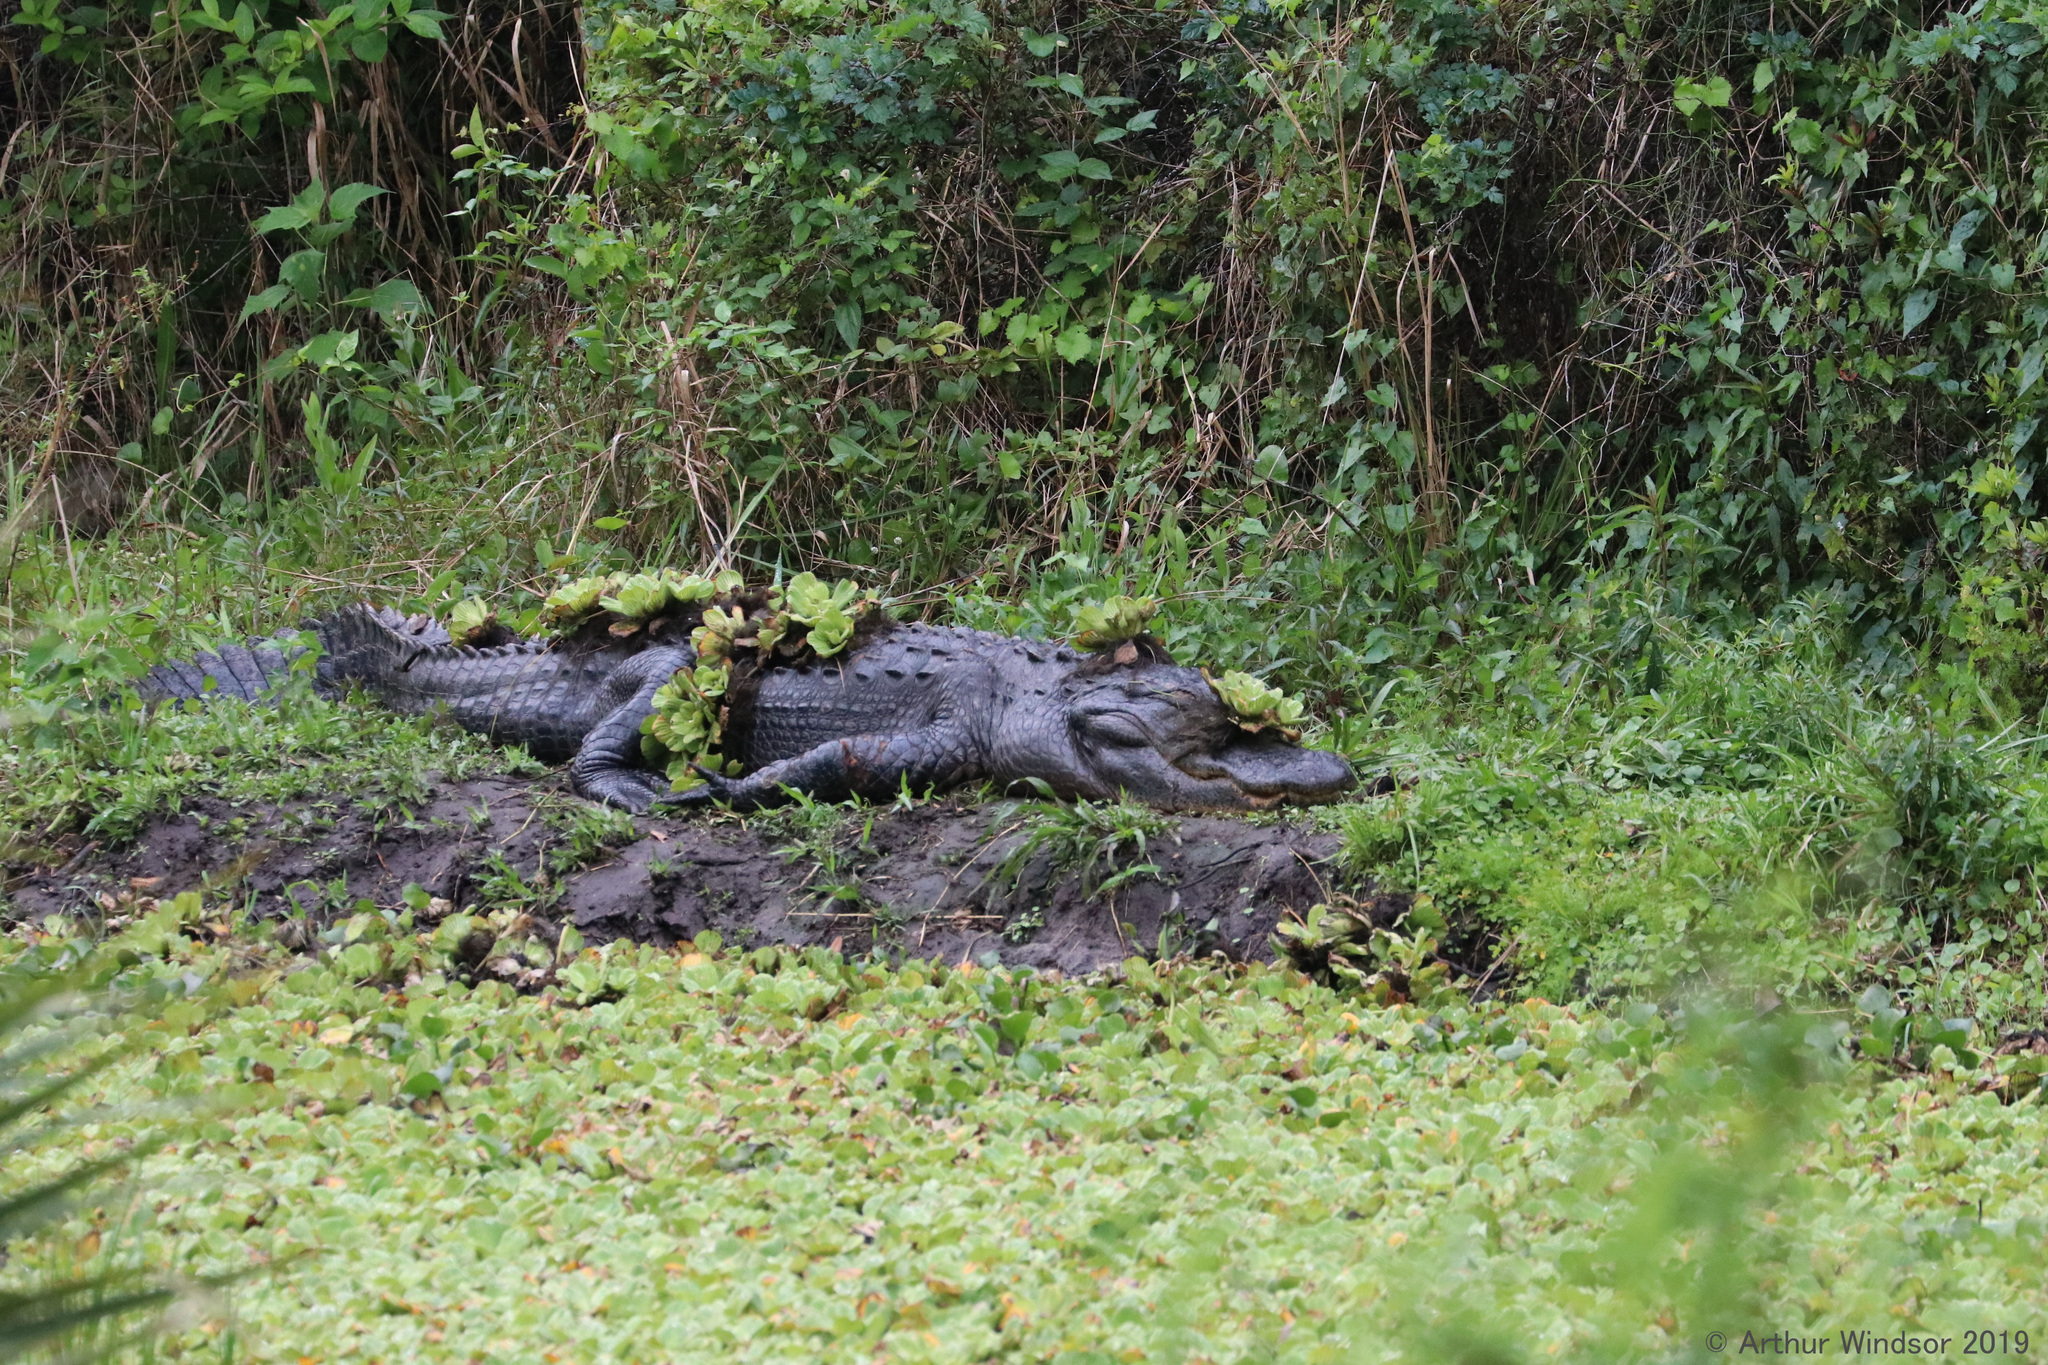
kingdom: Animalia
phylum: Chordata
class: Crocodylia
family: Alligatoridae
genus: Alligator
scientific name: Alligator mississippiensis
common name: American alligator
